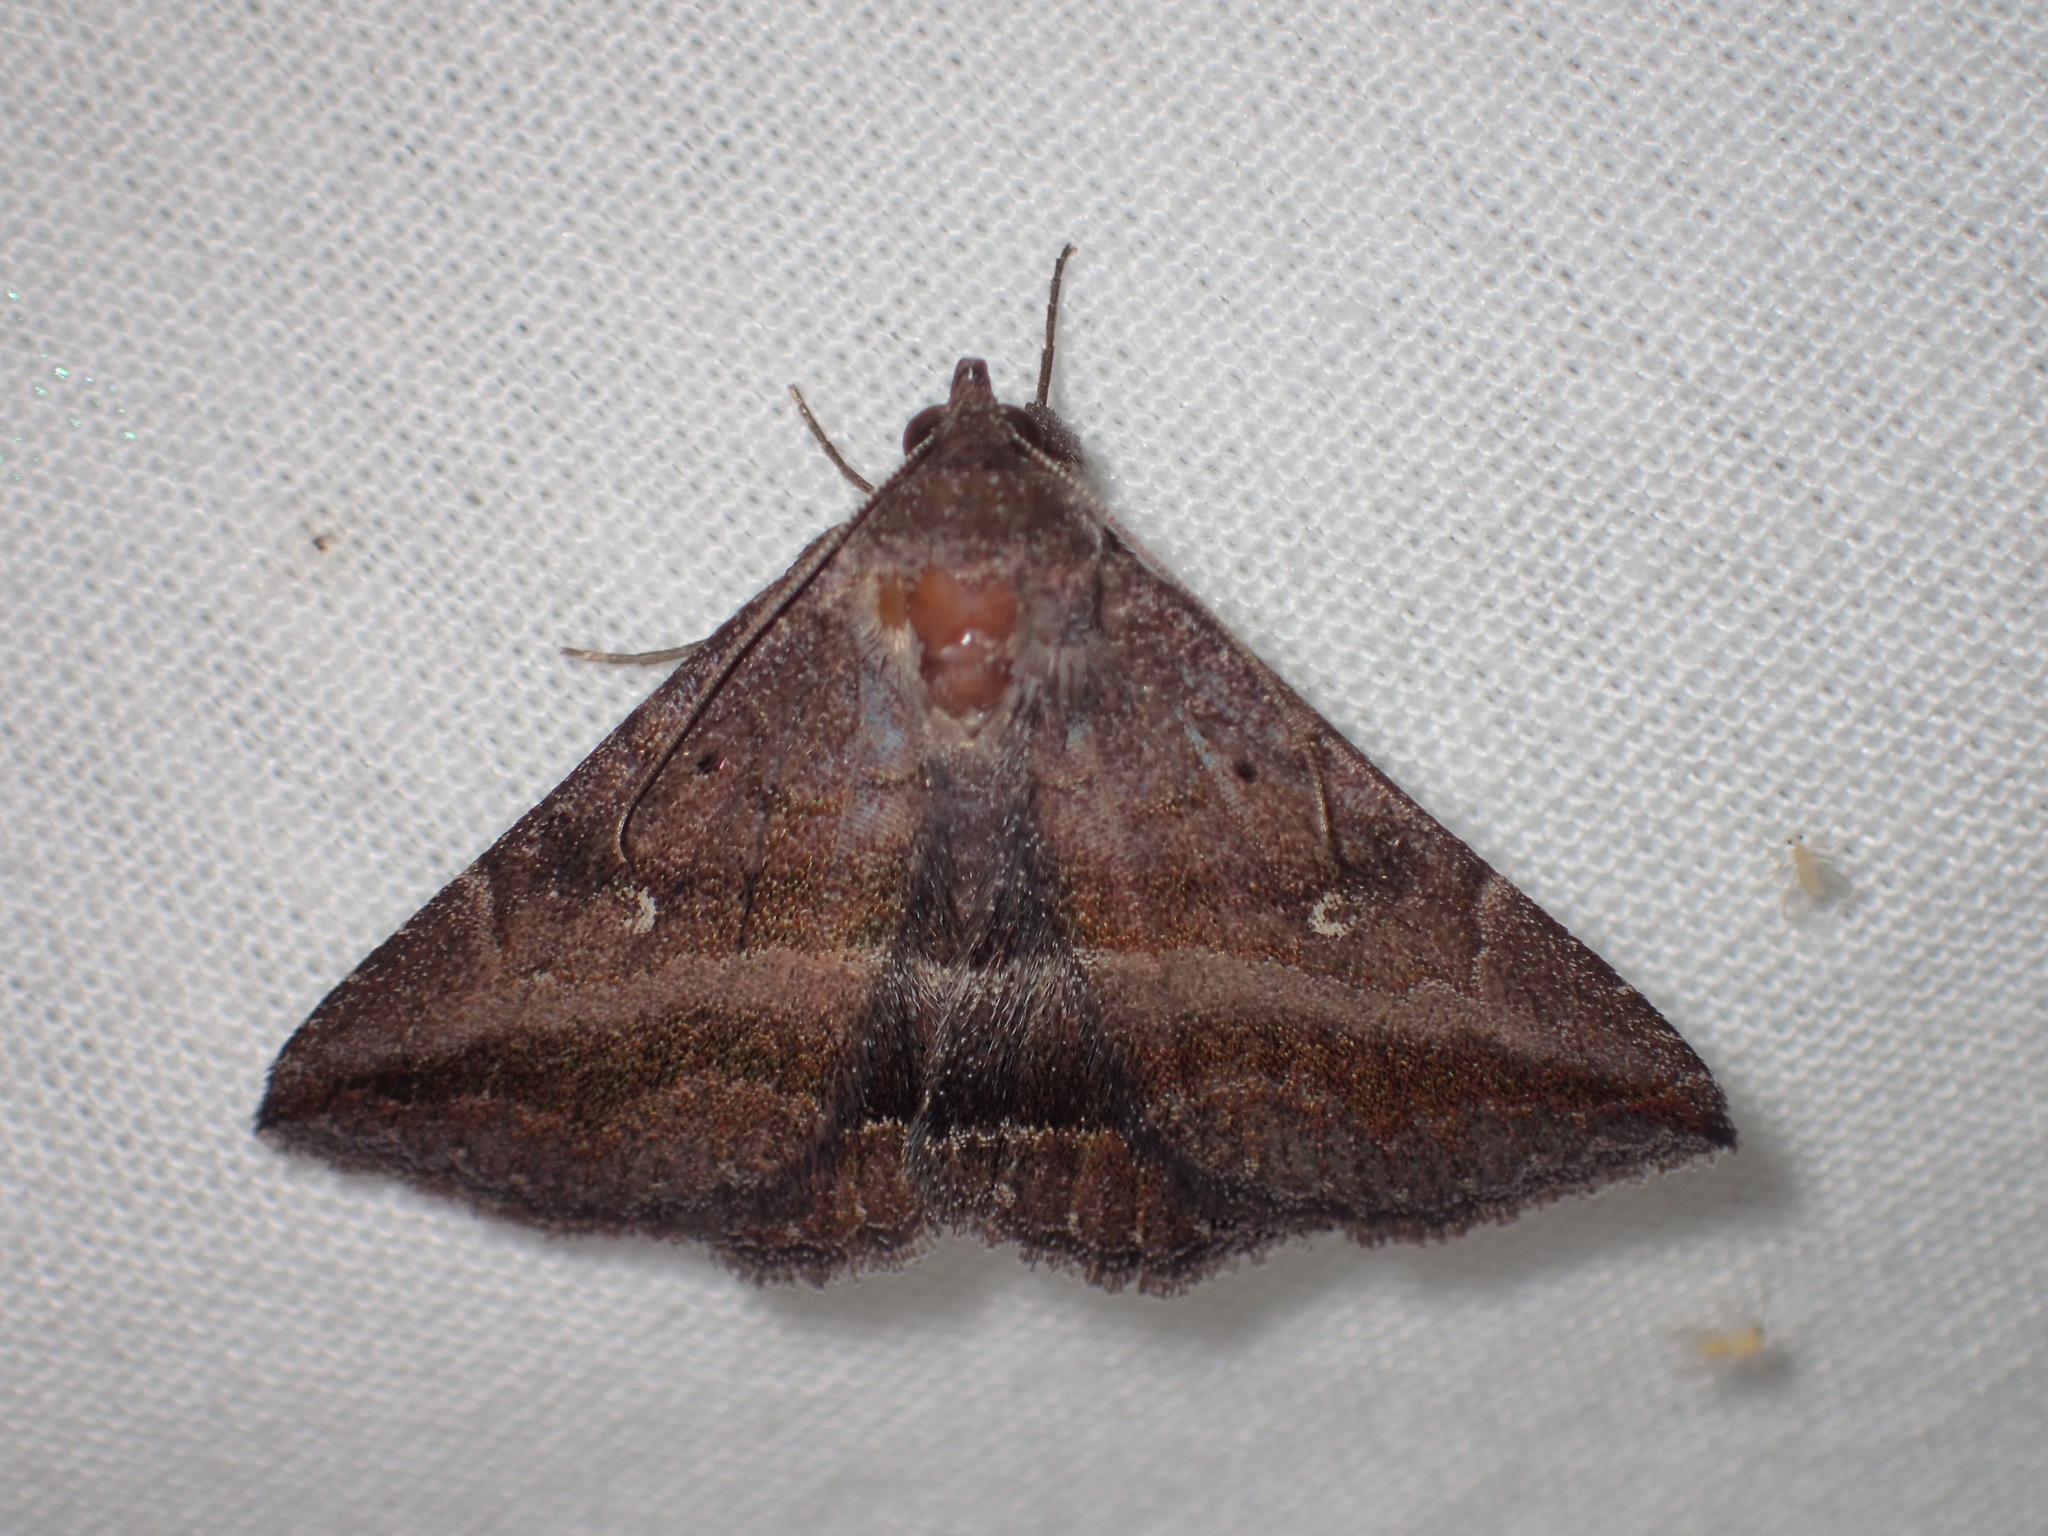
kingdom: Animalia
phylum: Arthropoda
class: Insecta
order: Lepidoptera
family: Erebidae
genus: Lesmone
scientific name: Lesmone detrahens
